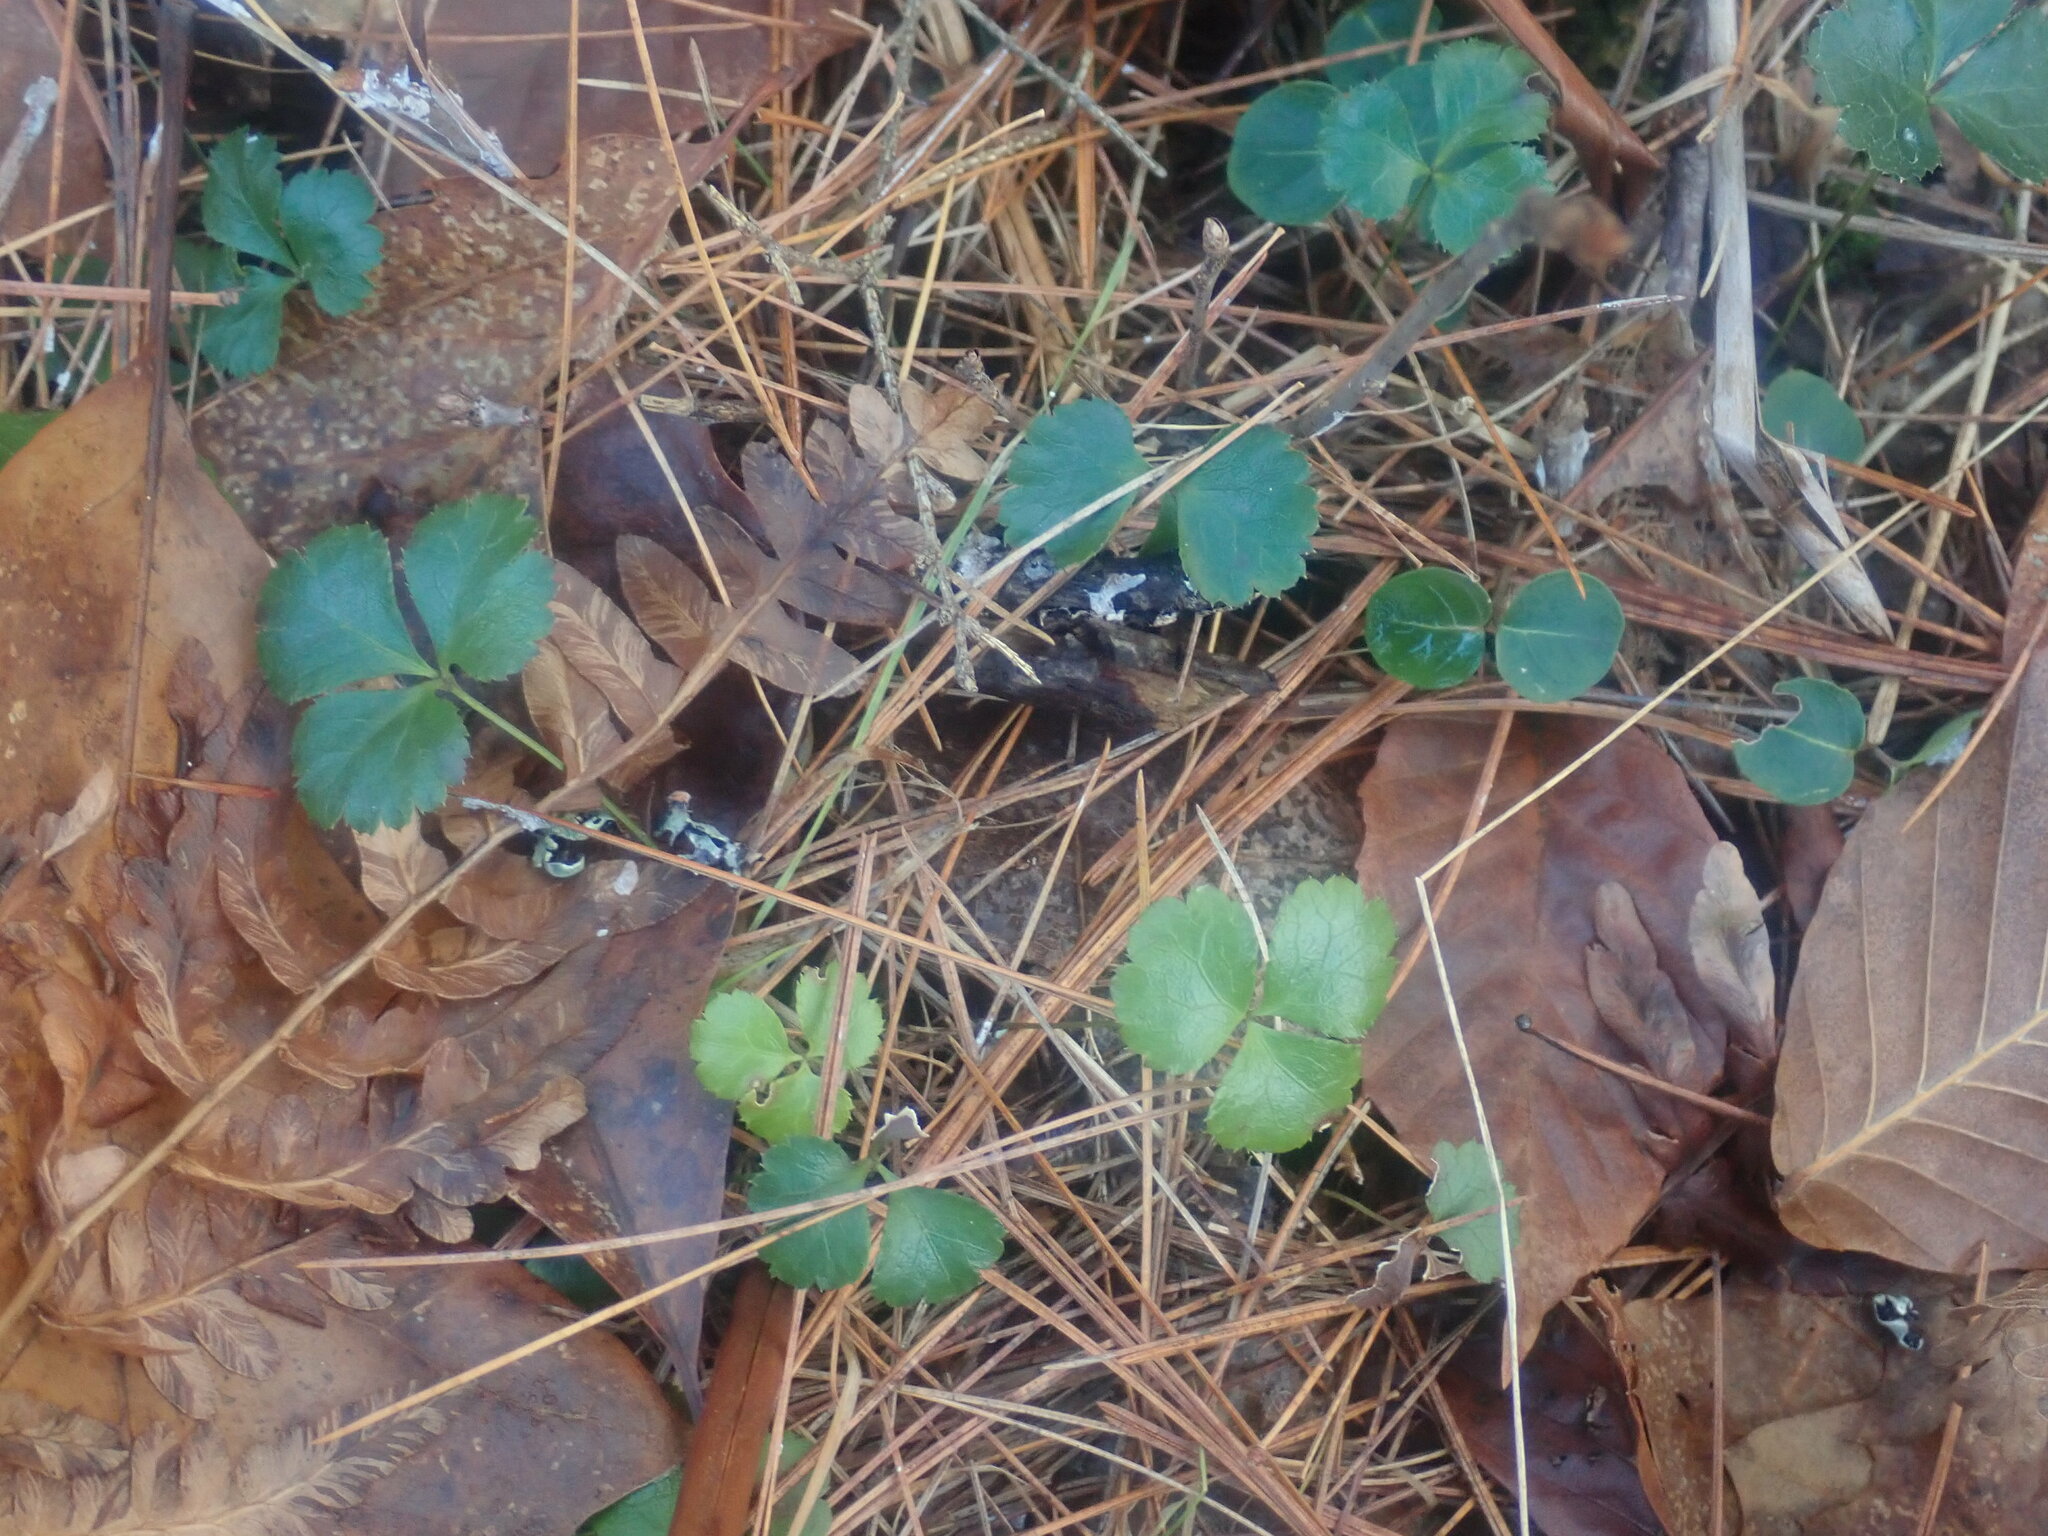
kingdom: Plantae
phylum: Tracheophyta
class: Magnoliopsida
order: Ranunculales
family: Ranunculaceae
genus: Coptis
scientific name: Coptis trifolia
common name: Canker-root
